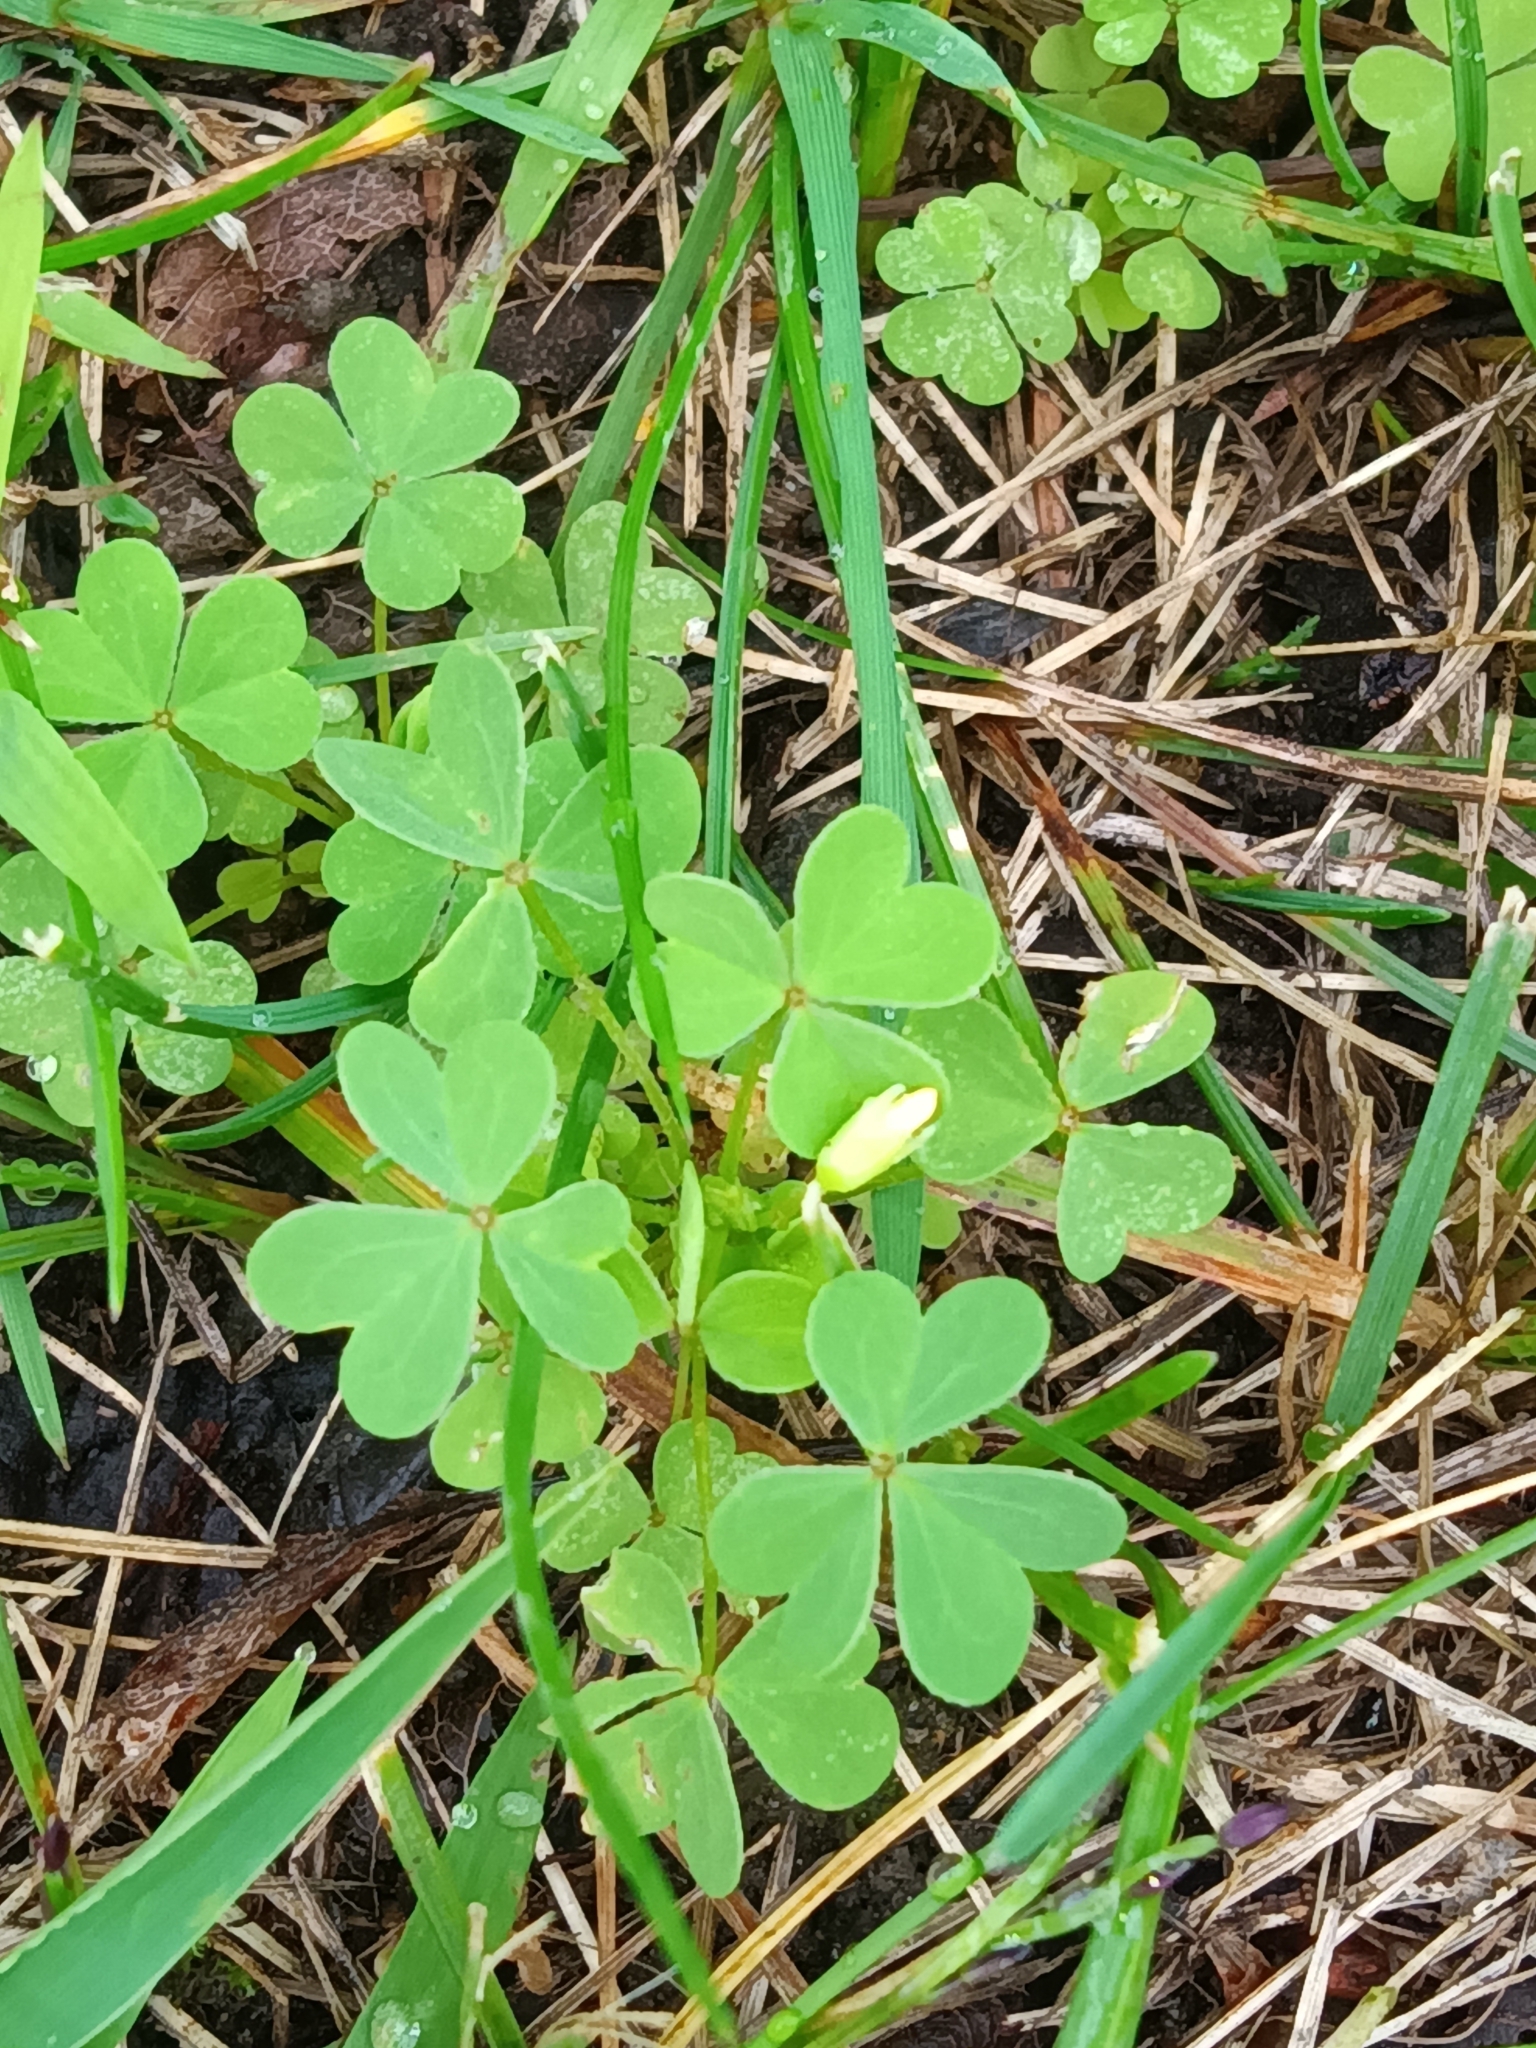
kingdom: Plantae
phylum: Tracheophyta
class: Magnoliopsida
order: Oxalidales
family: Oxalidaceae
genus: Oxalis
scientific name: Oxalis corniculata
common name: Procumbent yellow-sorrel
